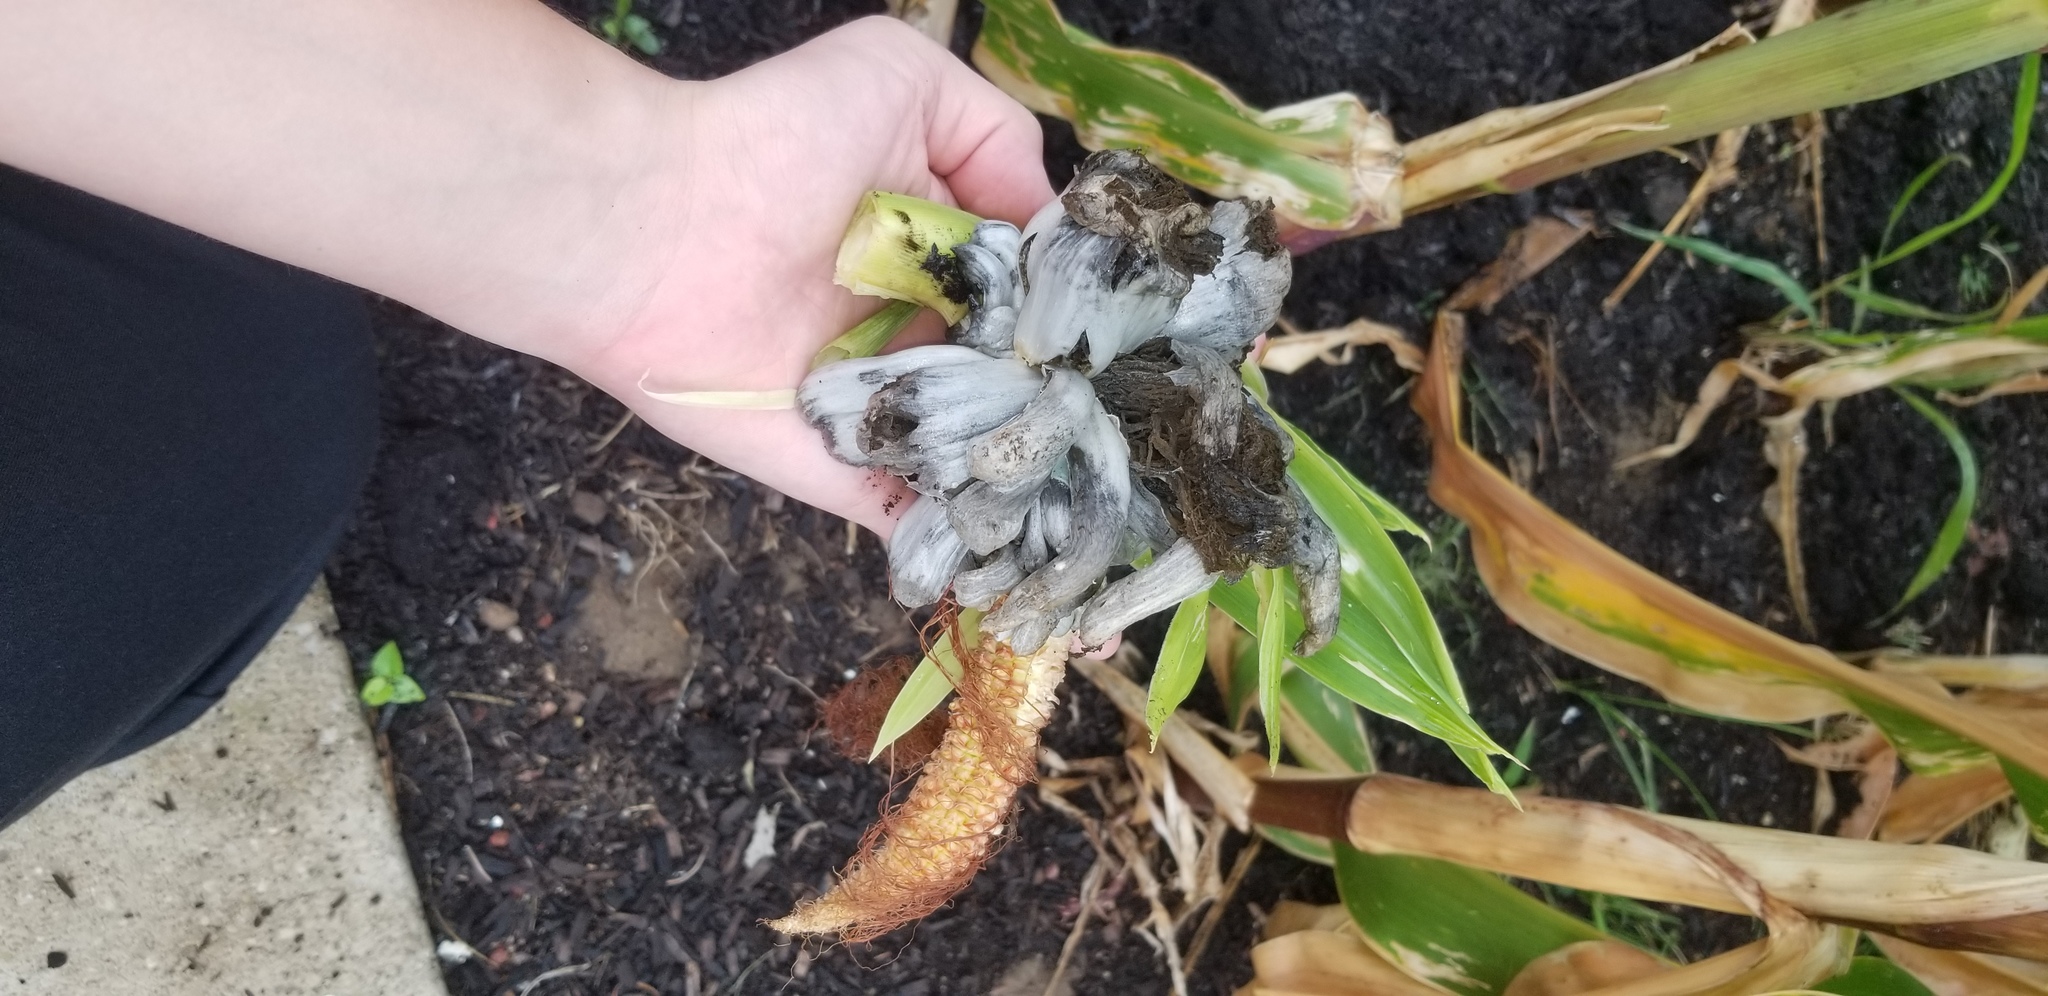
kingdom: Fungi
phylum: Basidiomycota
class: Ustilaginomycetes
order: Ustilaginales
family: Ustilaginaceae
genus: Mycosarcoma
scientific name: Mycosarcoma maydis
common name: Corn smut
